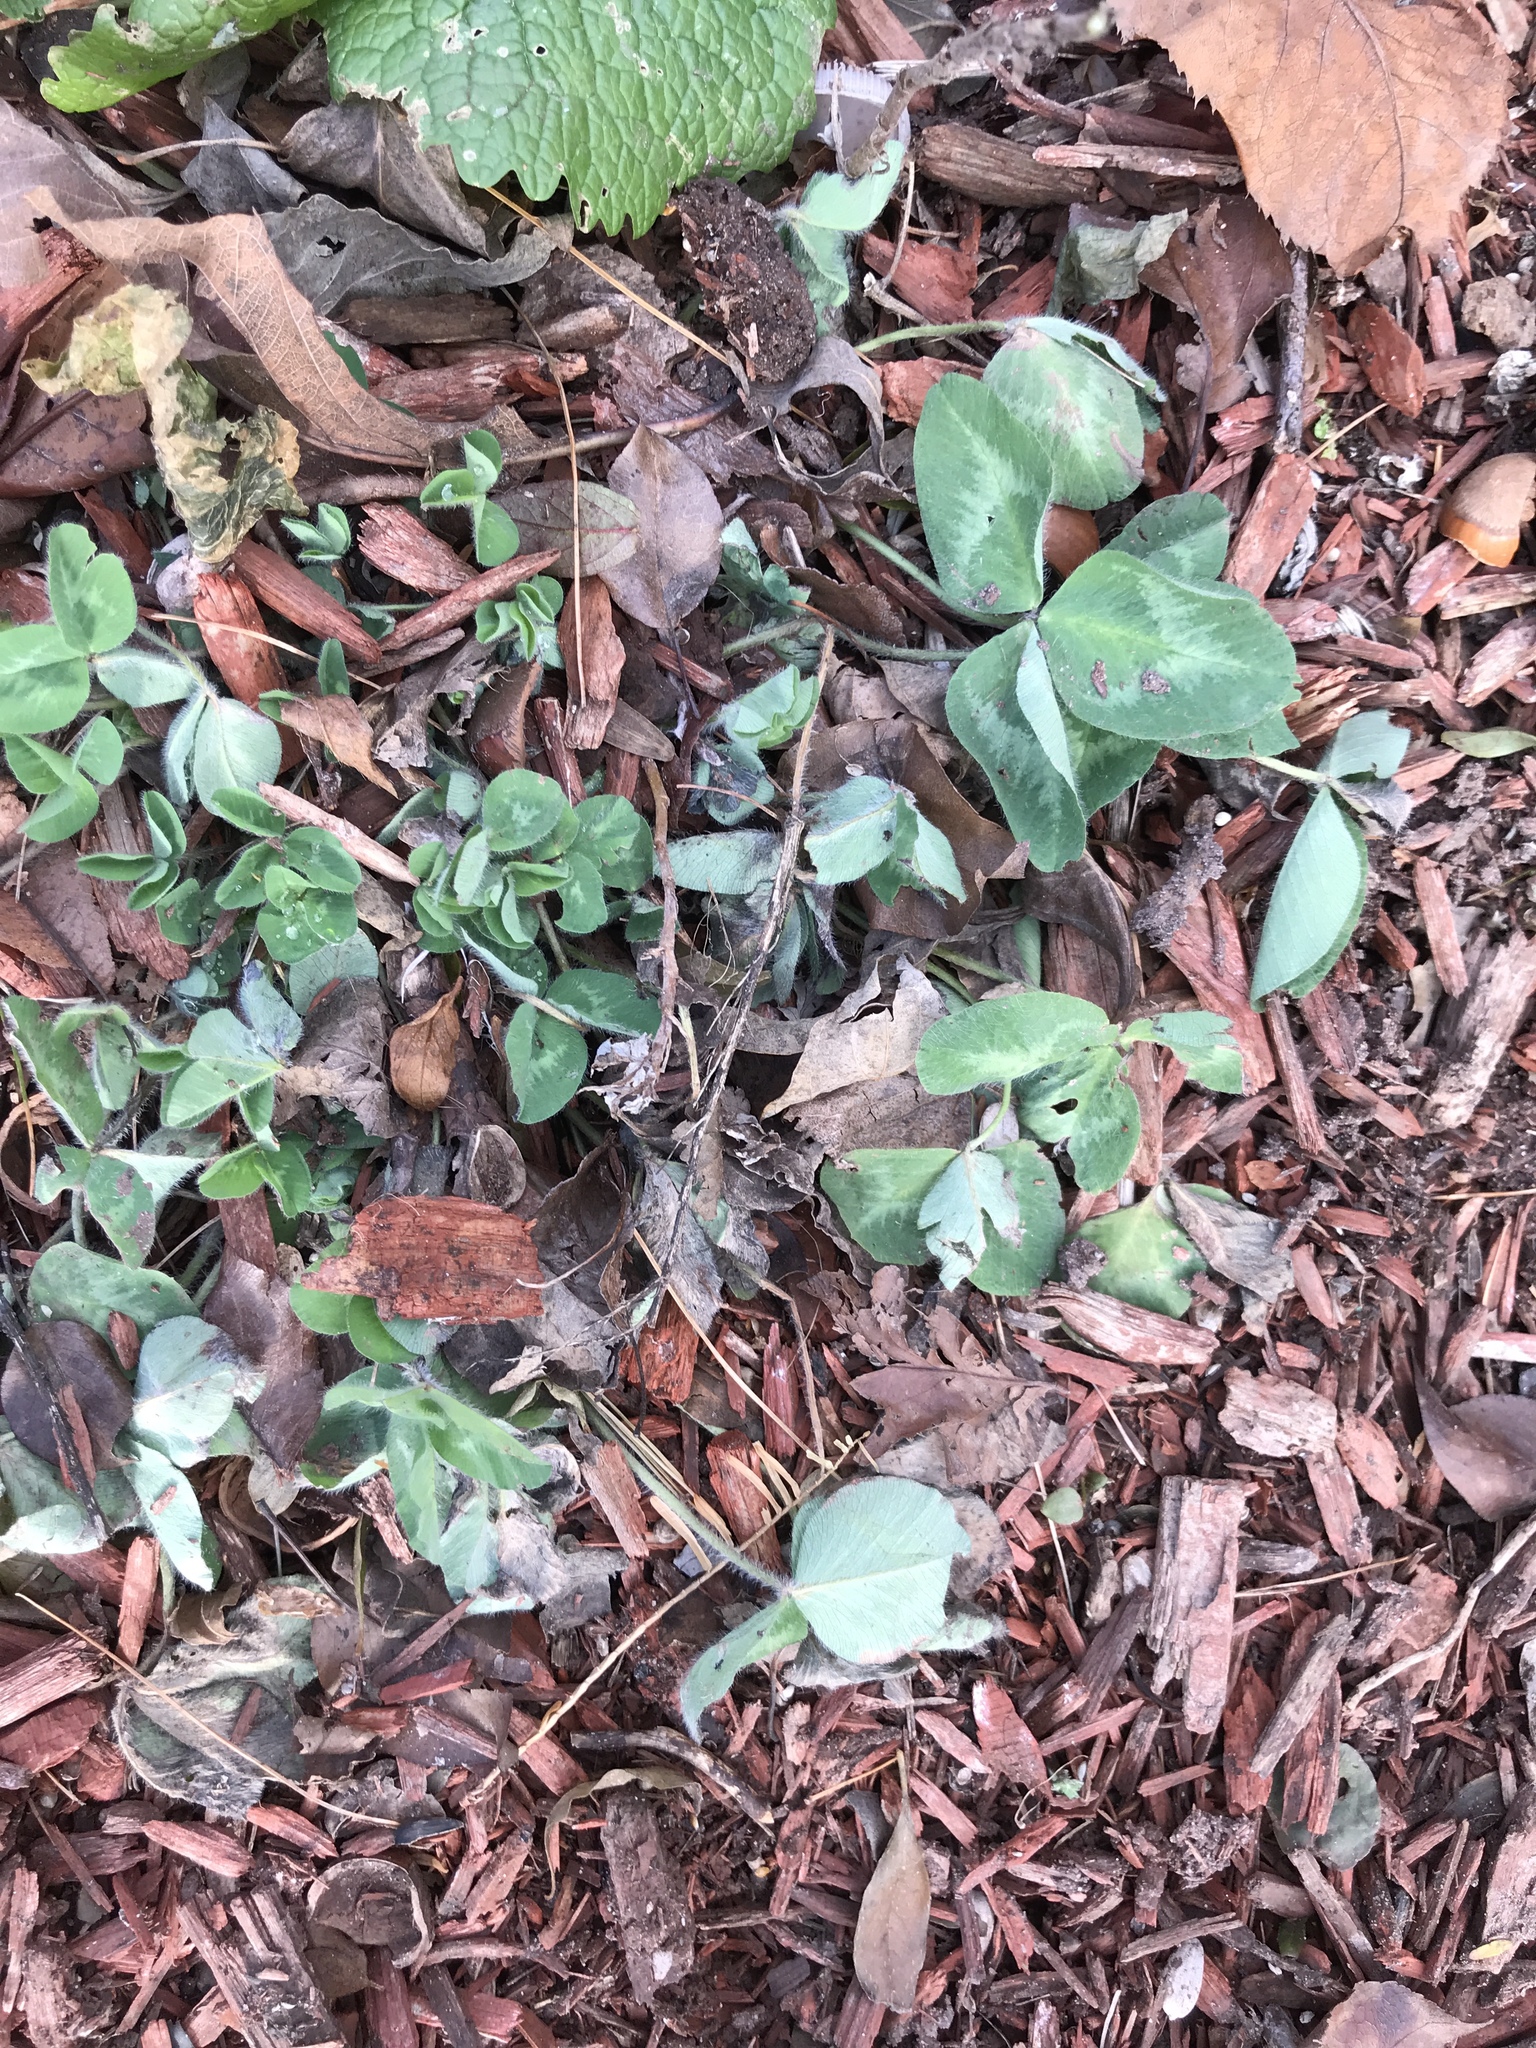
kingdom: Plantae
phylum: Tracheophyta
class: Magnoliopsida
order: Fabales
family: Fabaceae
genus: Trifolium
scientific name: Trifolium pratense
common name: Red clover
